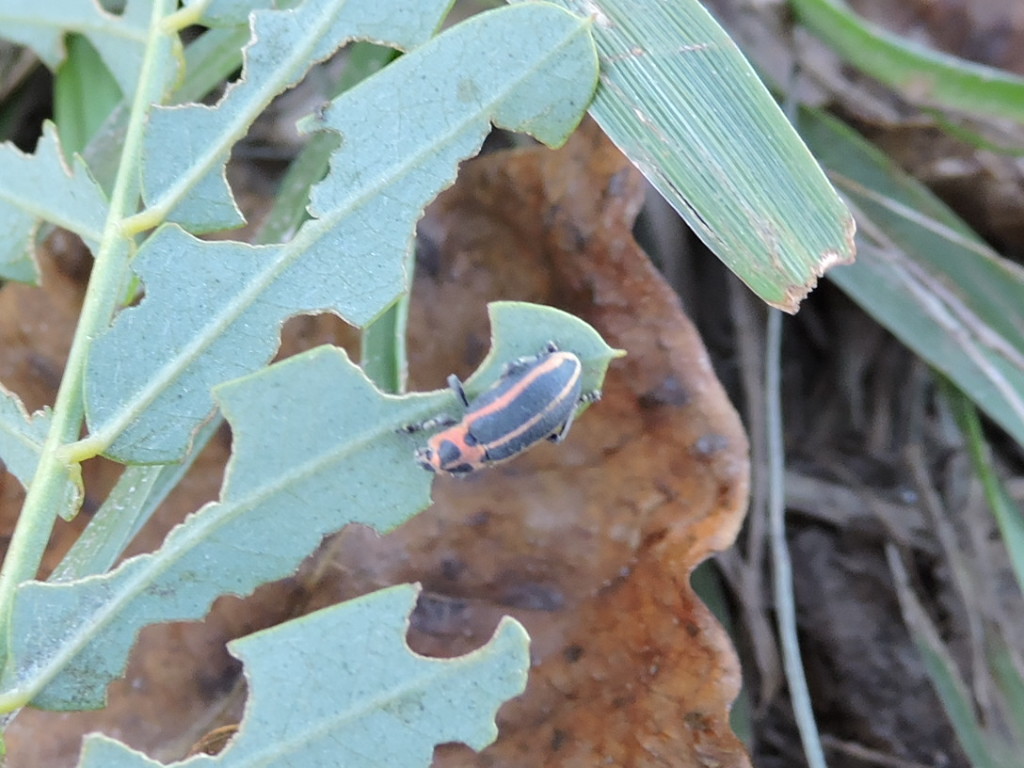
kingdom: Animalia
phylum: Arthropoda
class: Insecta
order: Coleoptera
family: Curculionidae
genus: Eudiagogus
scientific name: Eudiagogus pulcher
